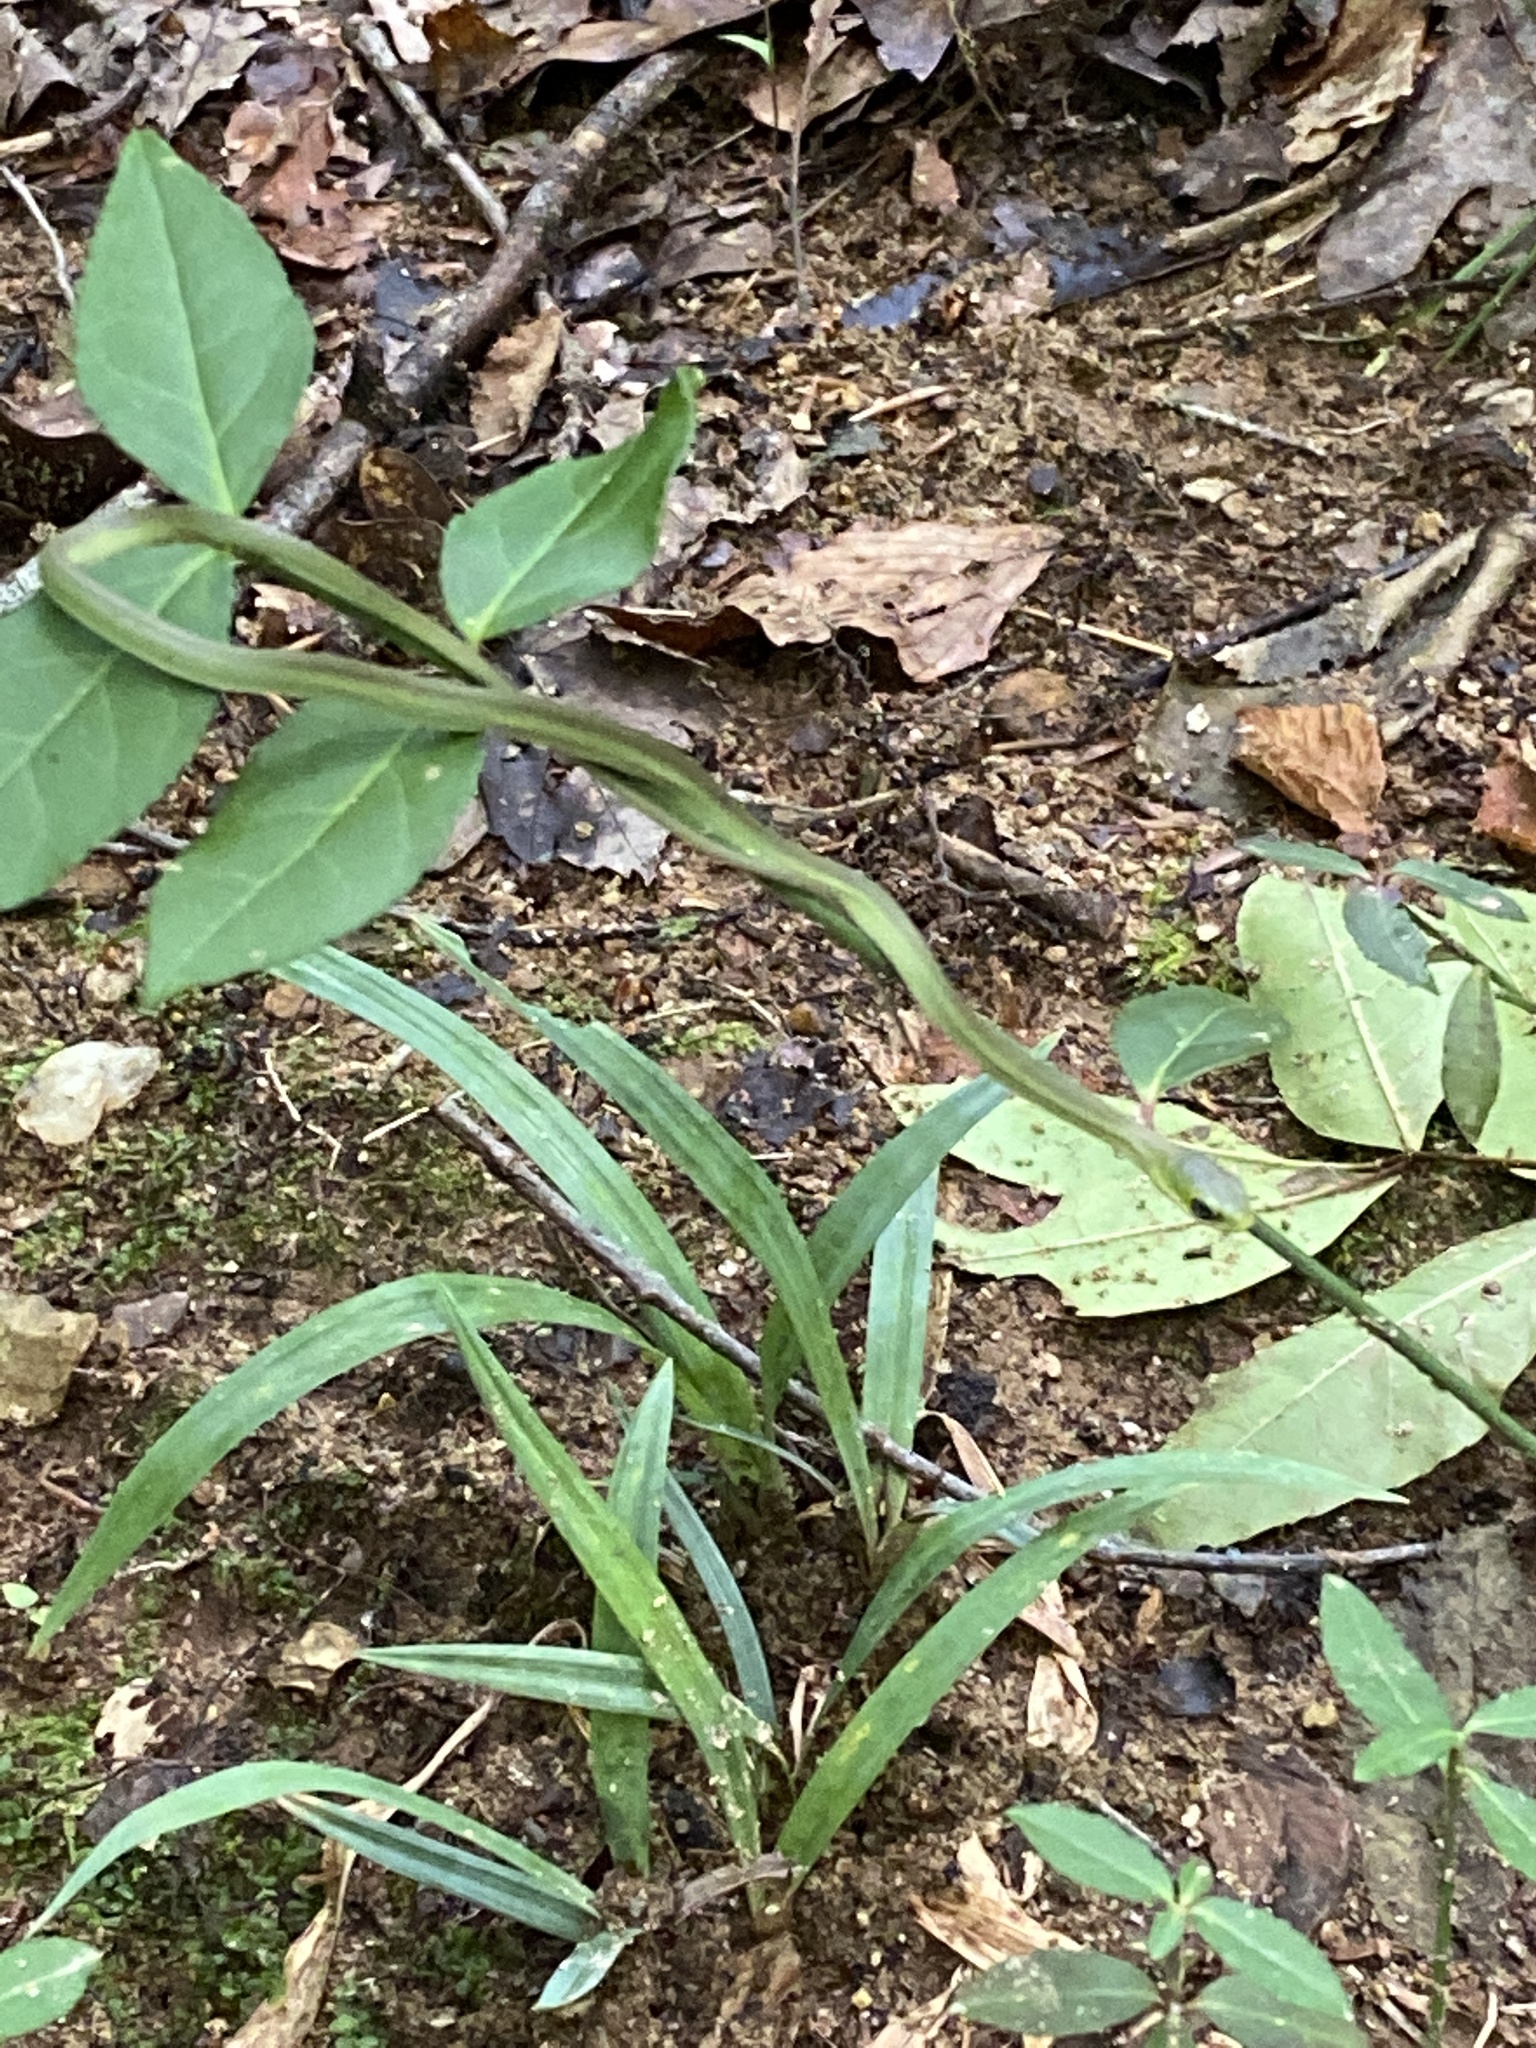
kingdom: Animalia
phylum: Chordata
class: Squamata
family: Colubridae
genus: Opheodrys
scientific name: Opheodrys aestivus
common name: Rough greensnake
